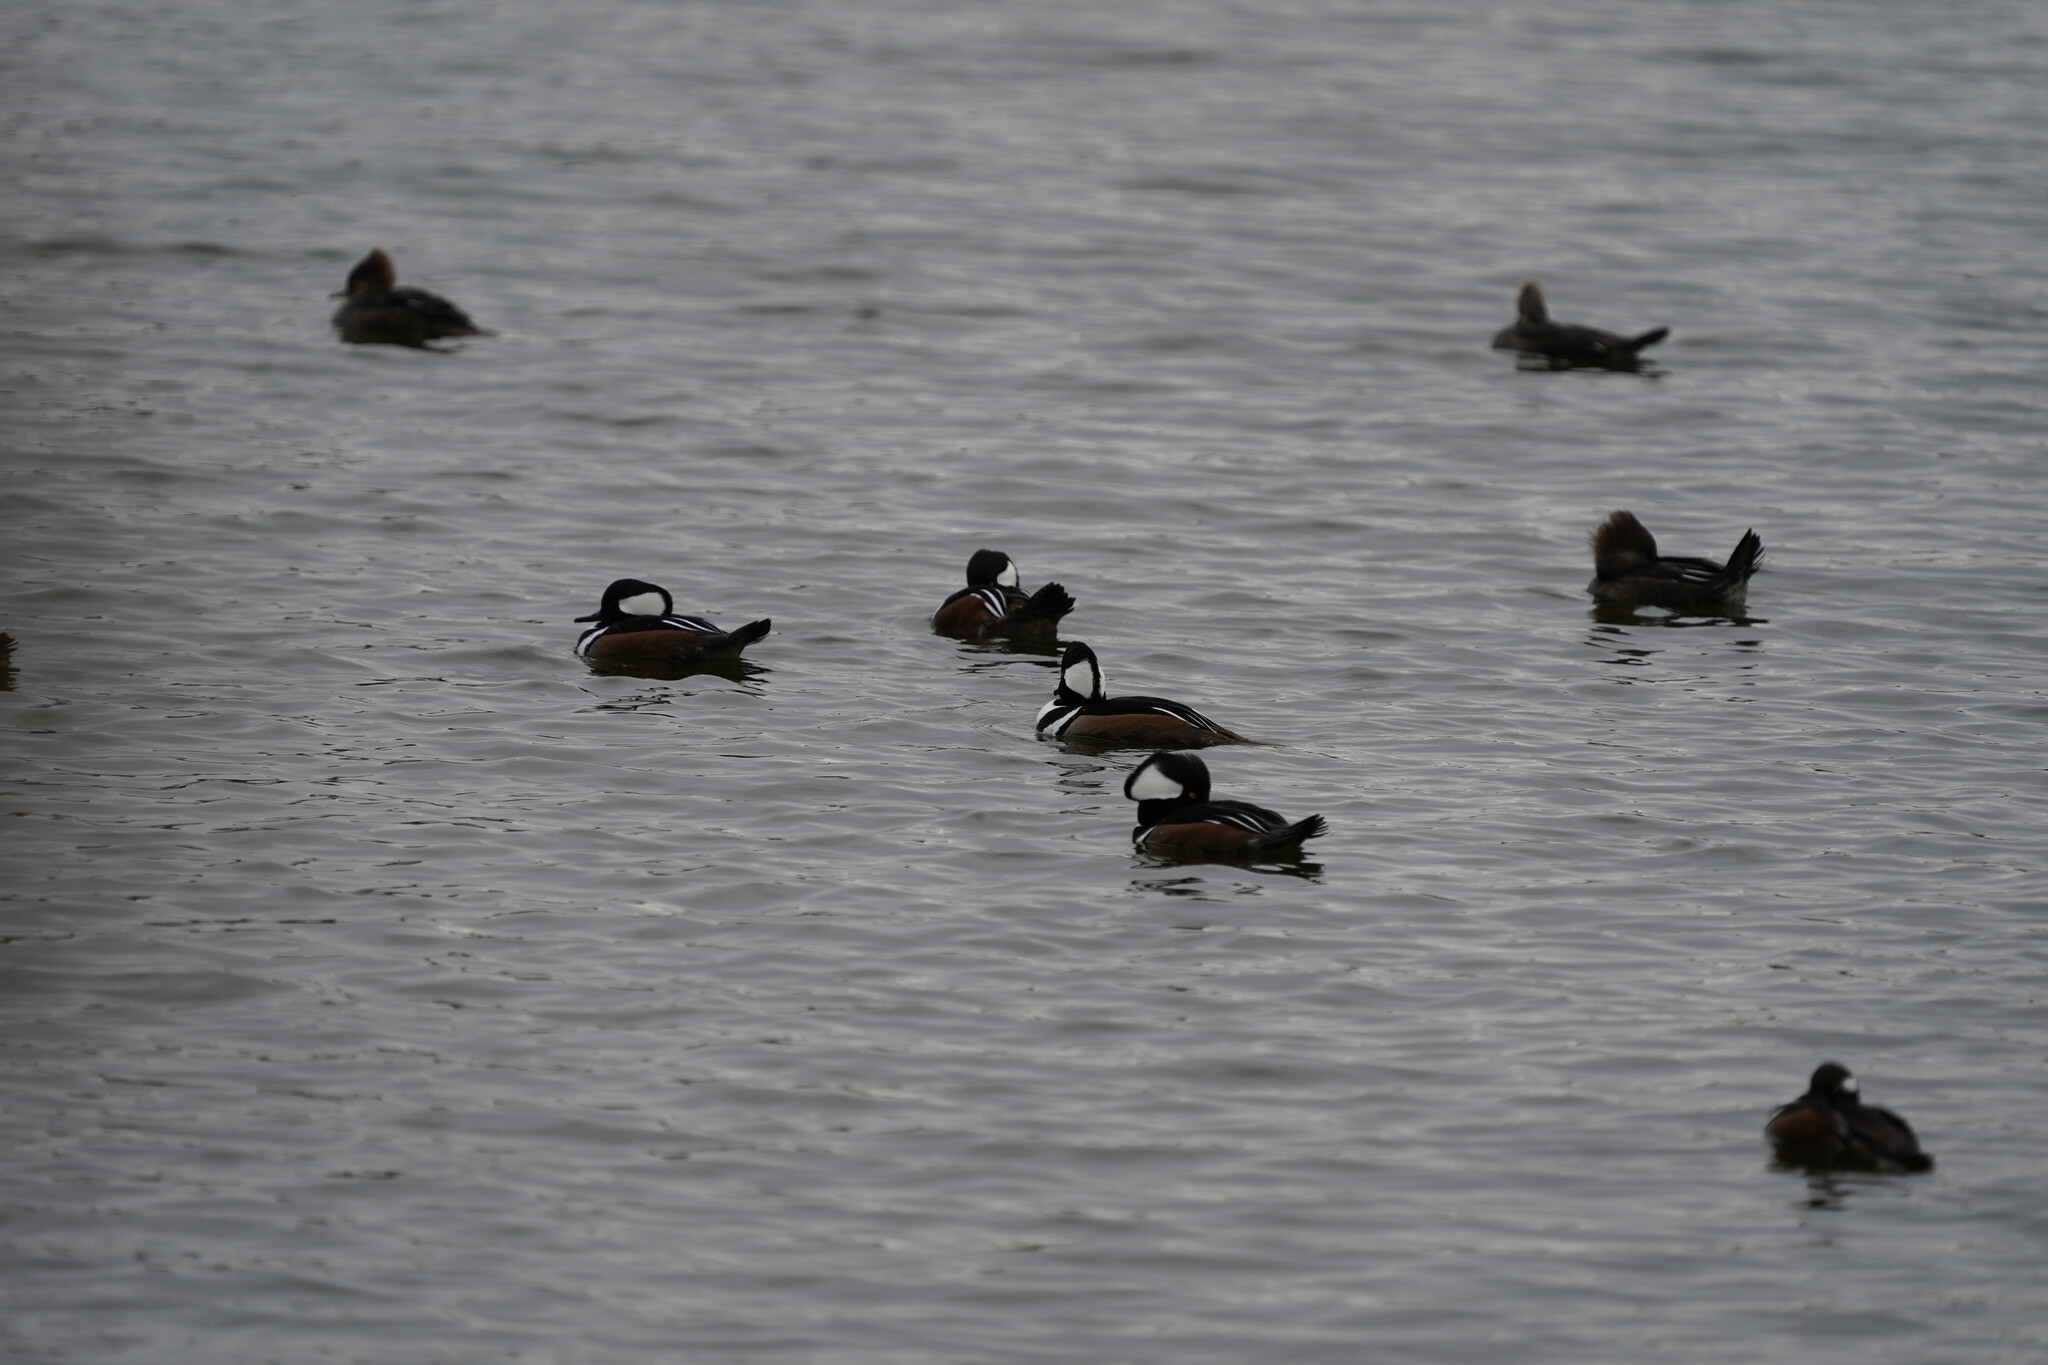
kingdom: Animalia
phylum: Chordata
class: Aves
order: Anseriformes
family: Anatidae
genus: Lophodytes
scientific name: Lophodytes cucullatus
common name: Hooded merganser
